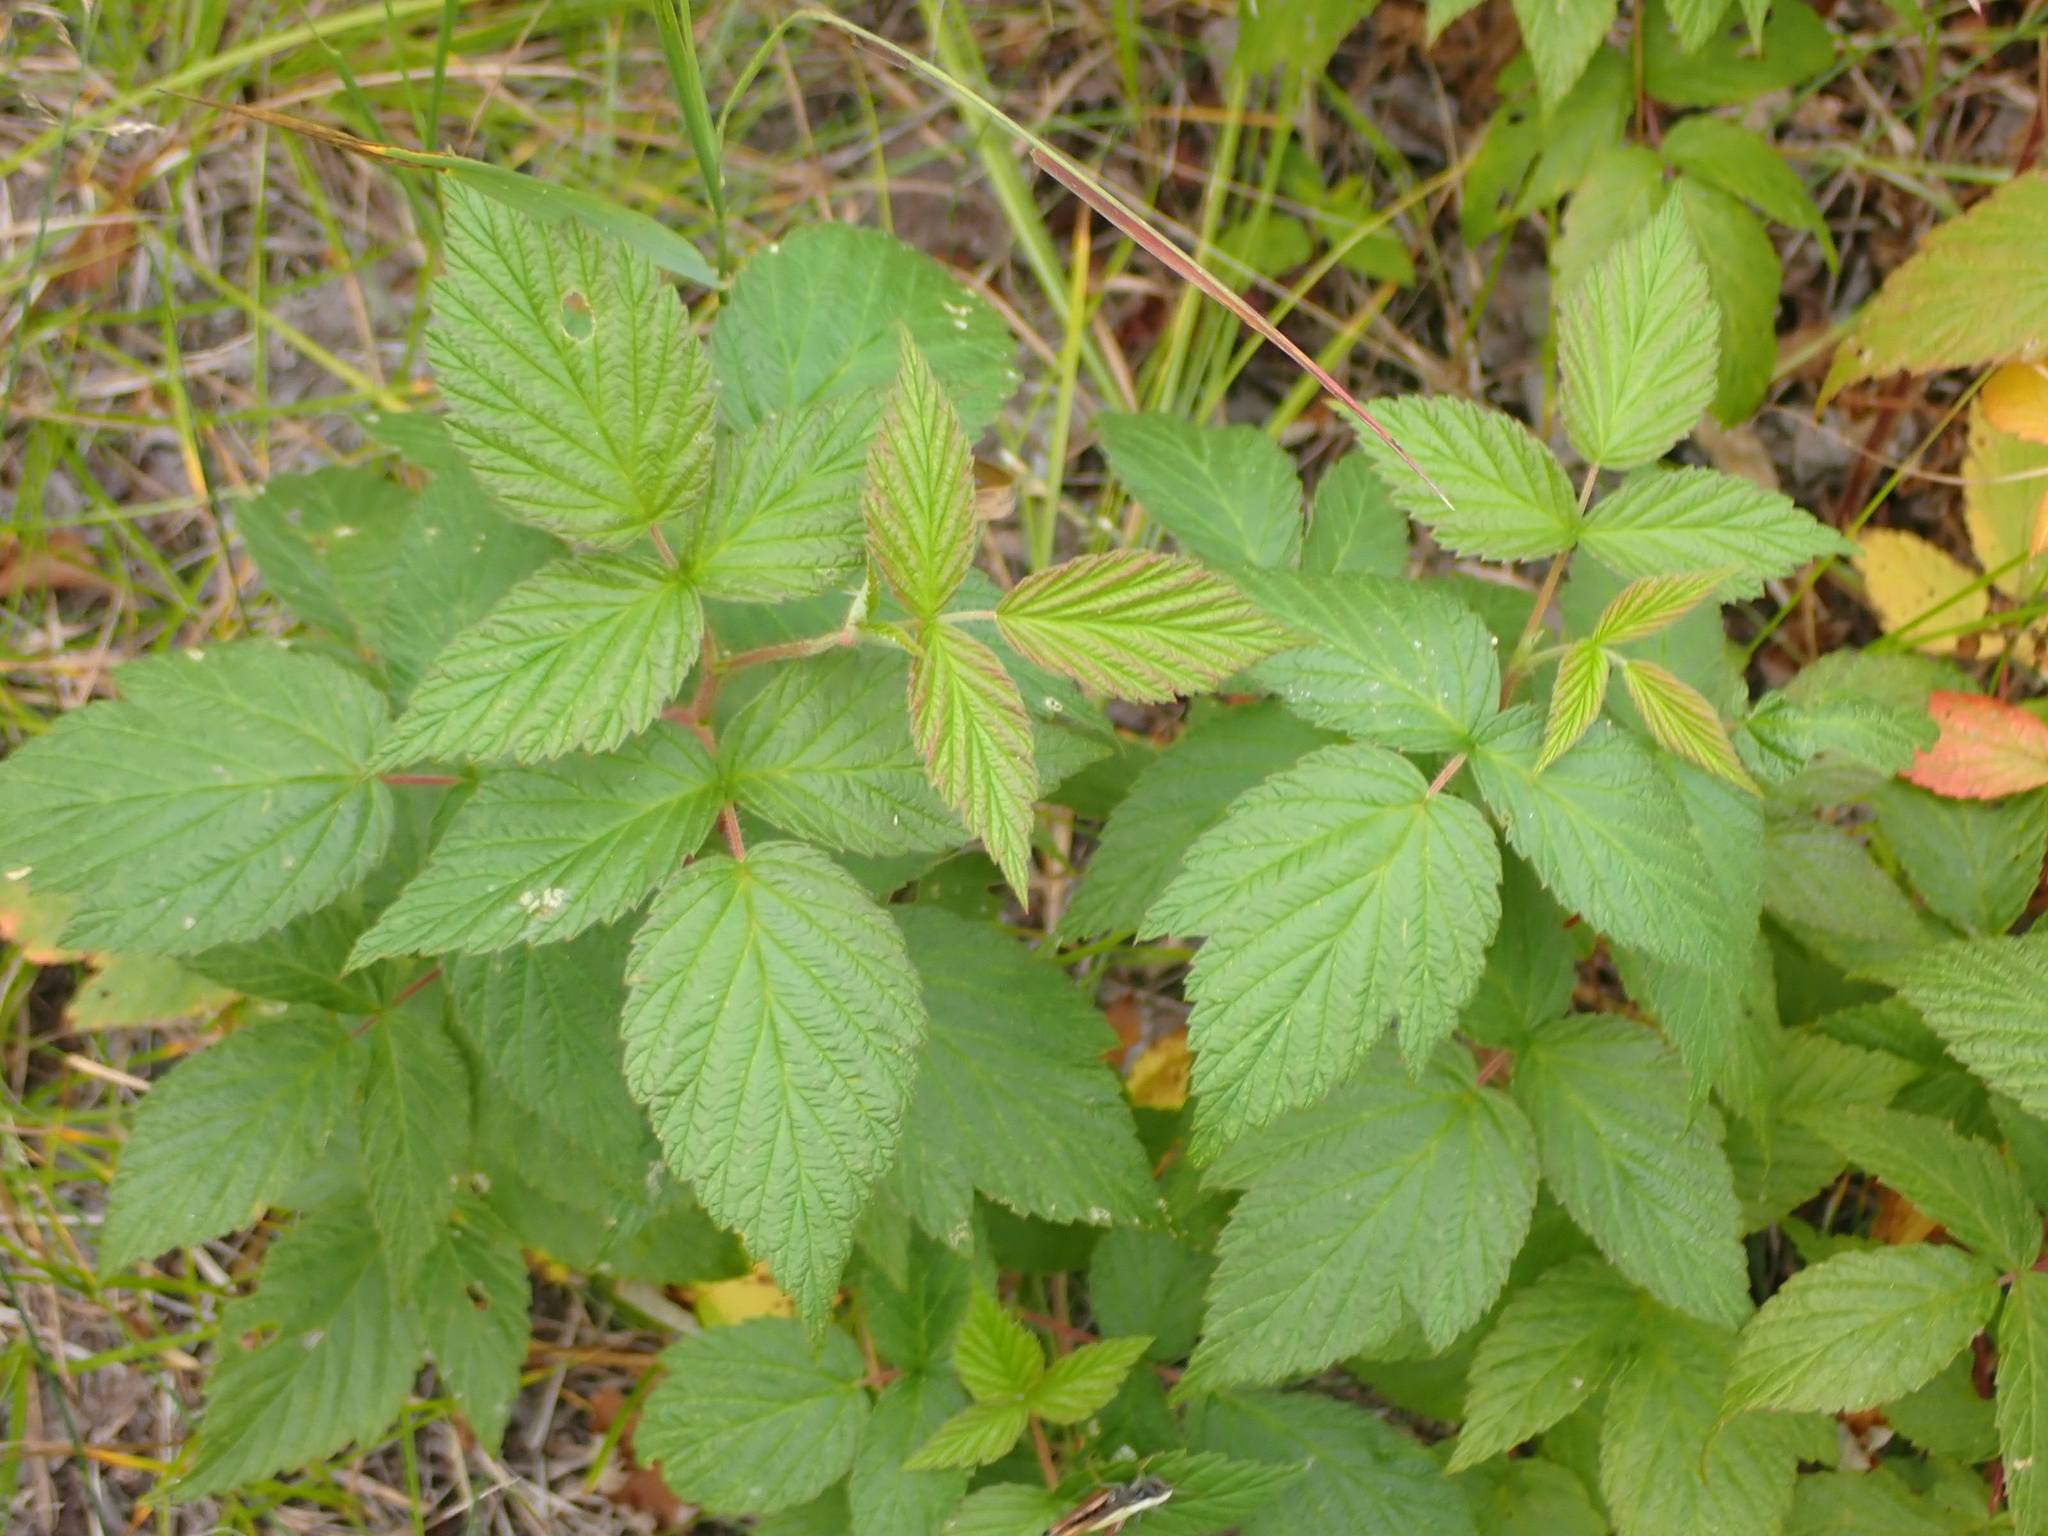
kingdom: Plantae
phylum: Tracheophyta
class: Magnoliopsida
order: Rosales
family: Rosaceae
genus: Rubus
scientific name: Rubus idaeus
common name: Raspberry
